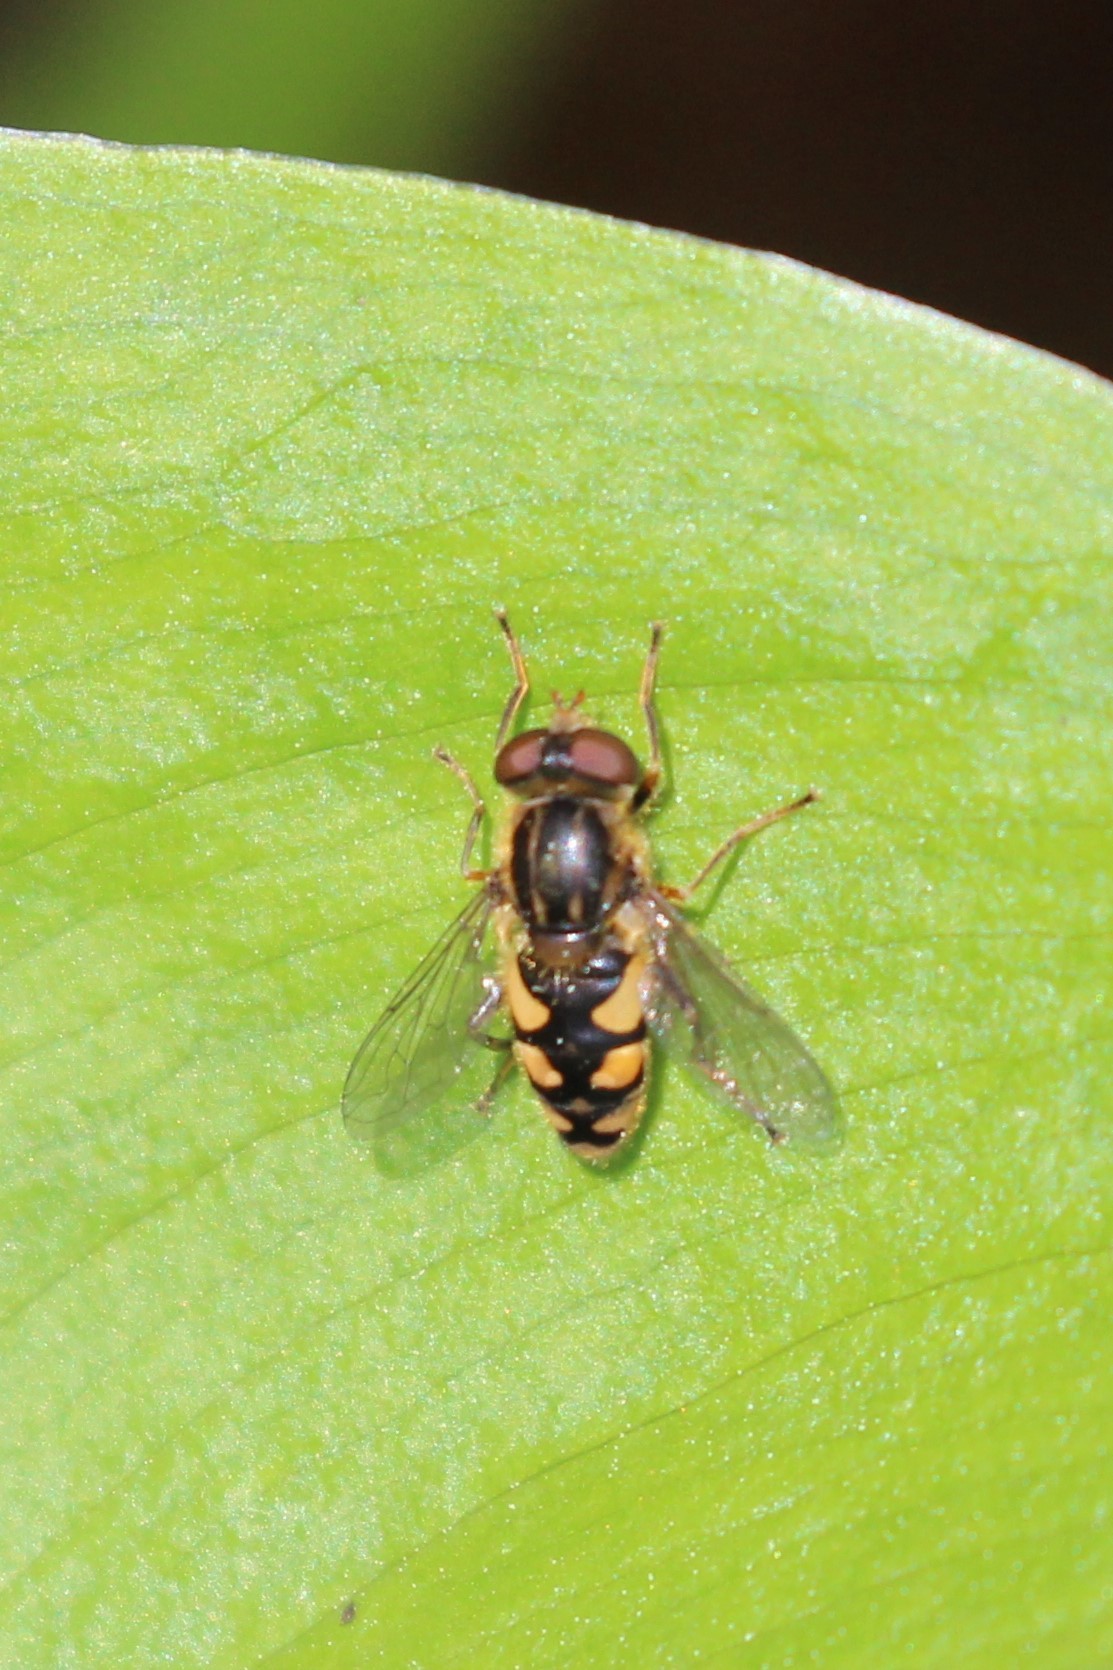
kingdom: Animalia
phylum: Arthropoda
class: Insecta
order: Diptera
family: Syrphidae
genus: Parhelophilus
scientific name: Parhelophilus rex
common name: Dusky bog fly
